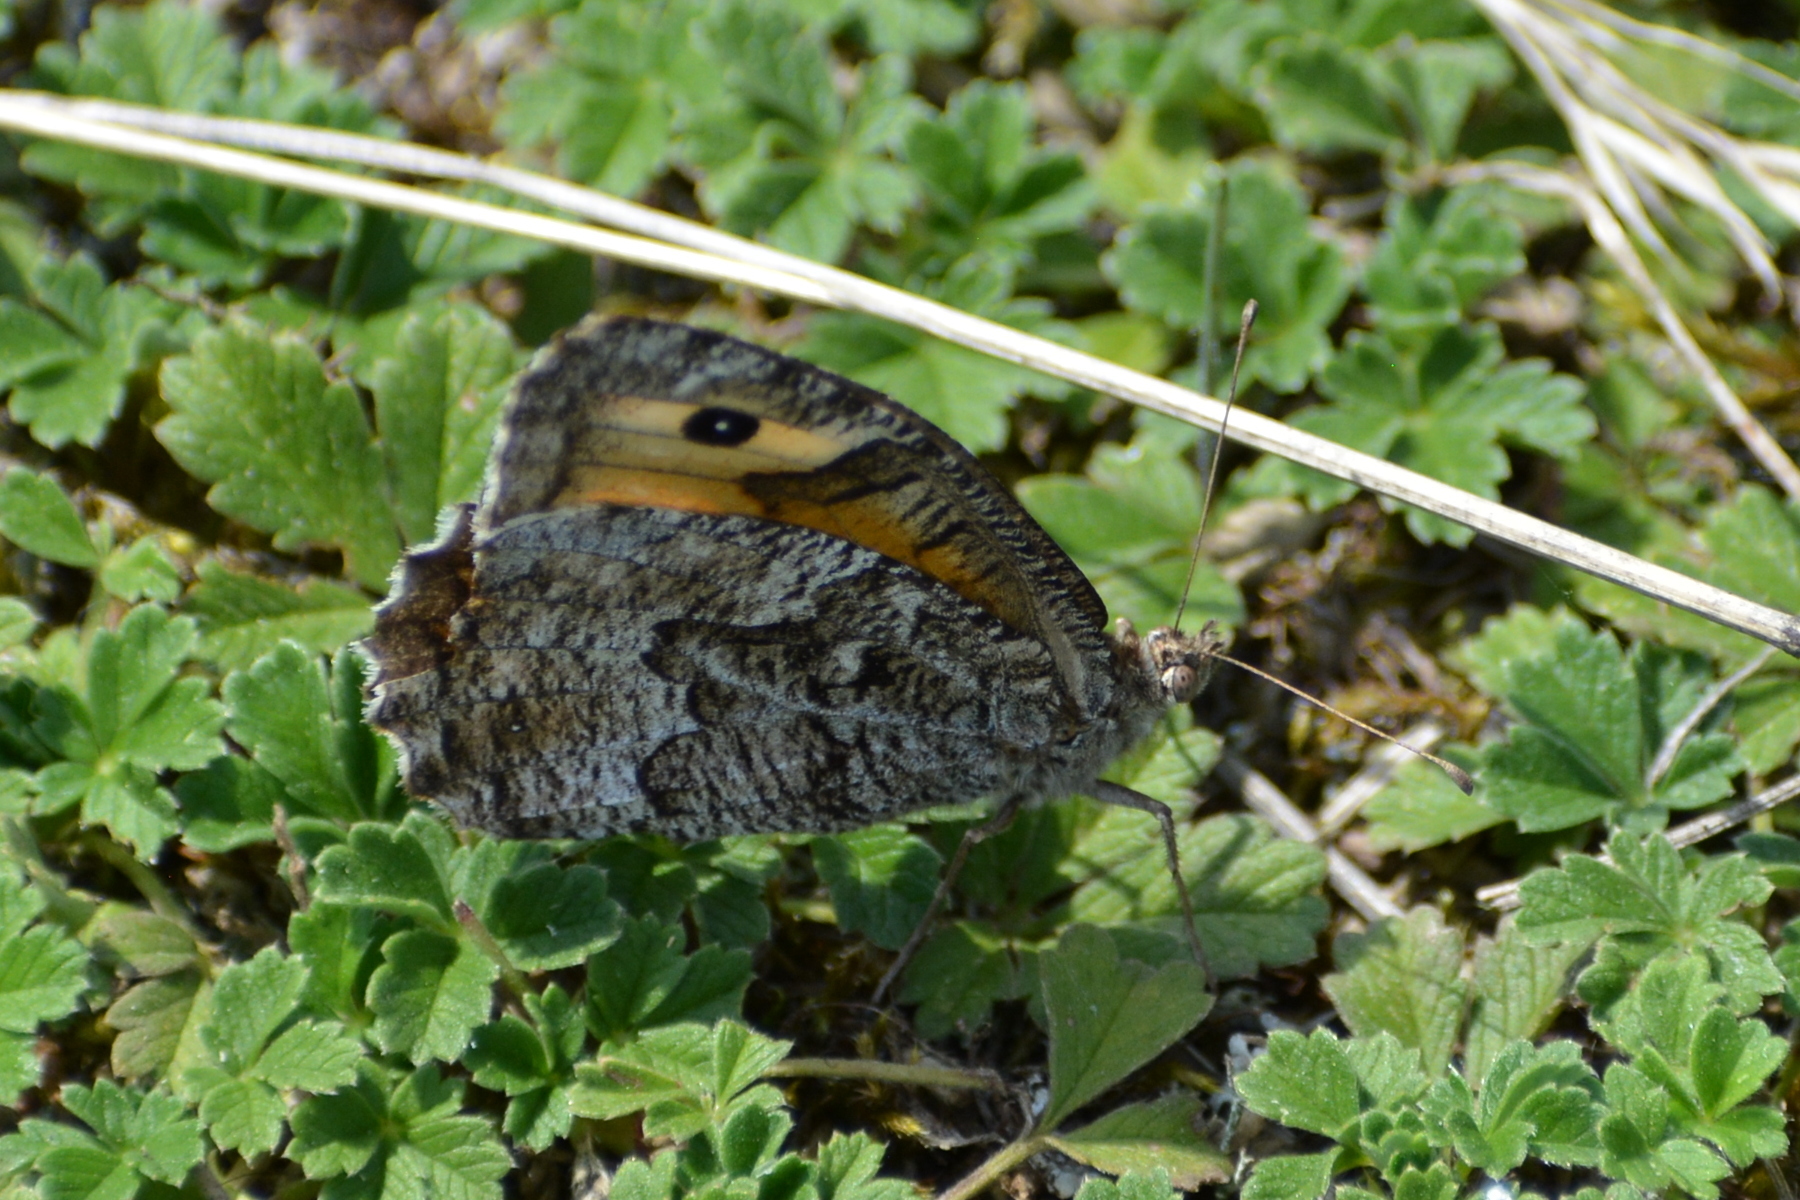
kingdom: Animalia
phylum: Arthropoda
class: Insecta
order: Lepidoptera
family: Nymphalidae
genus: Hipparchia
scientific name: Hipparchia semele
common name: Grayling
